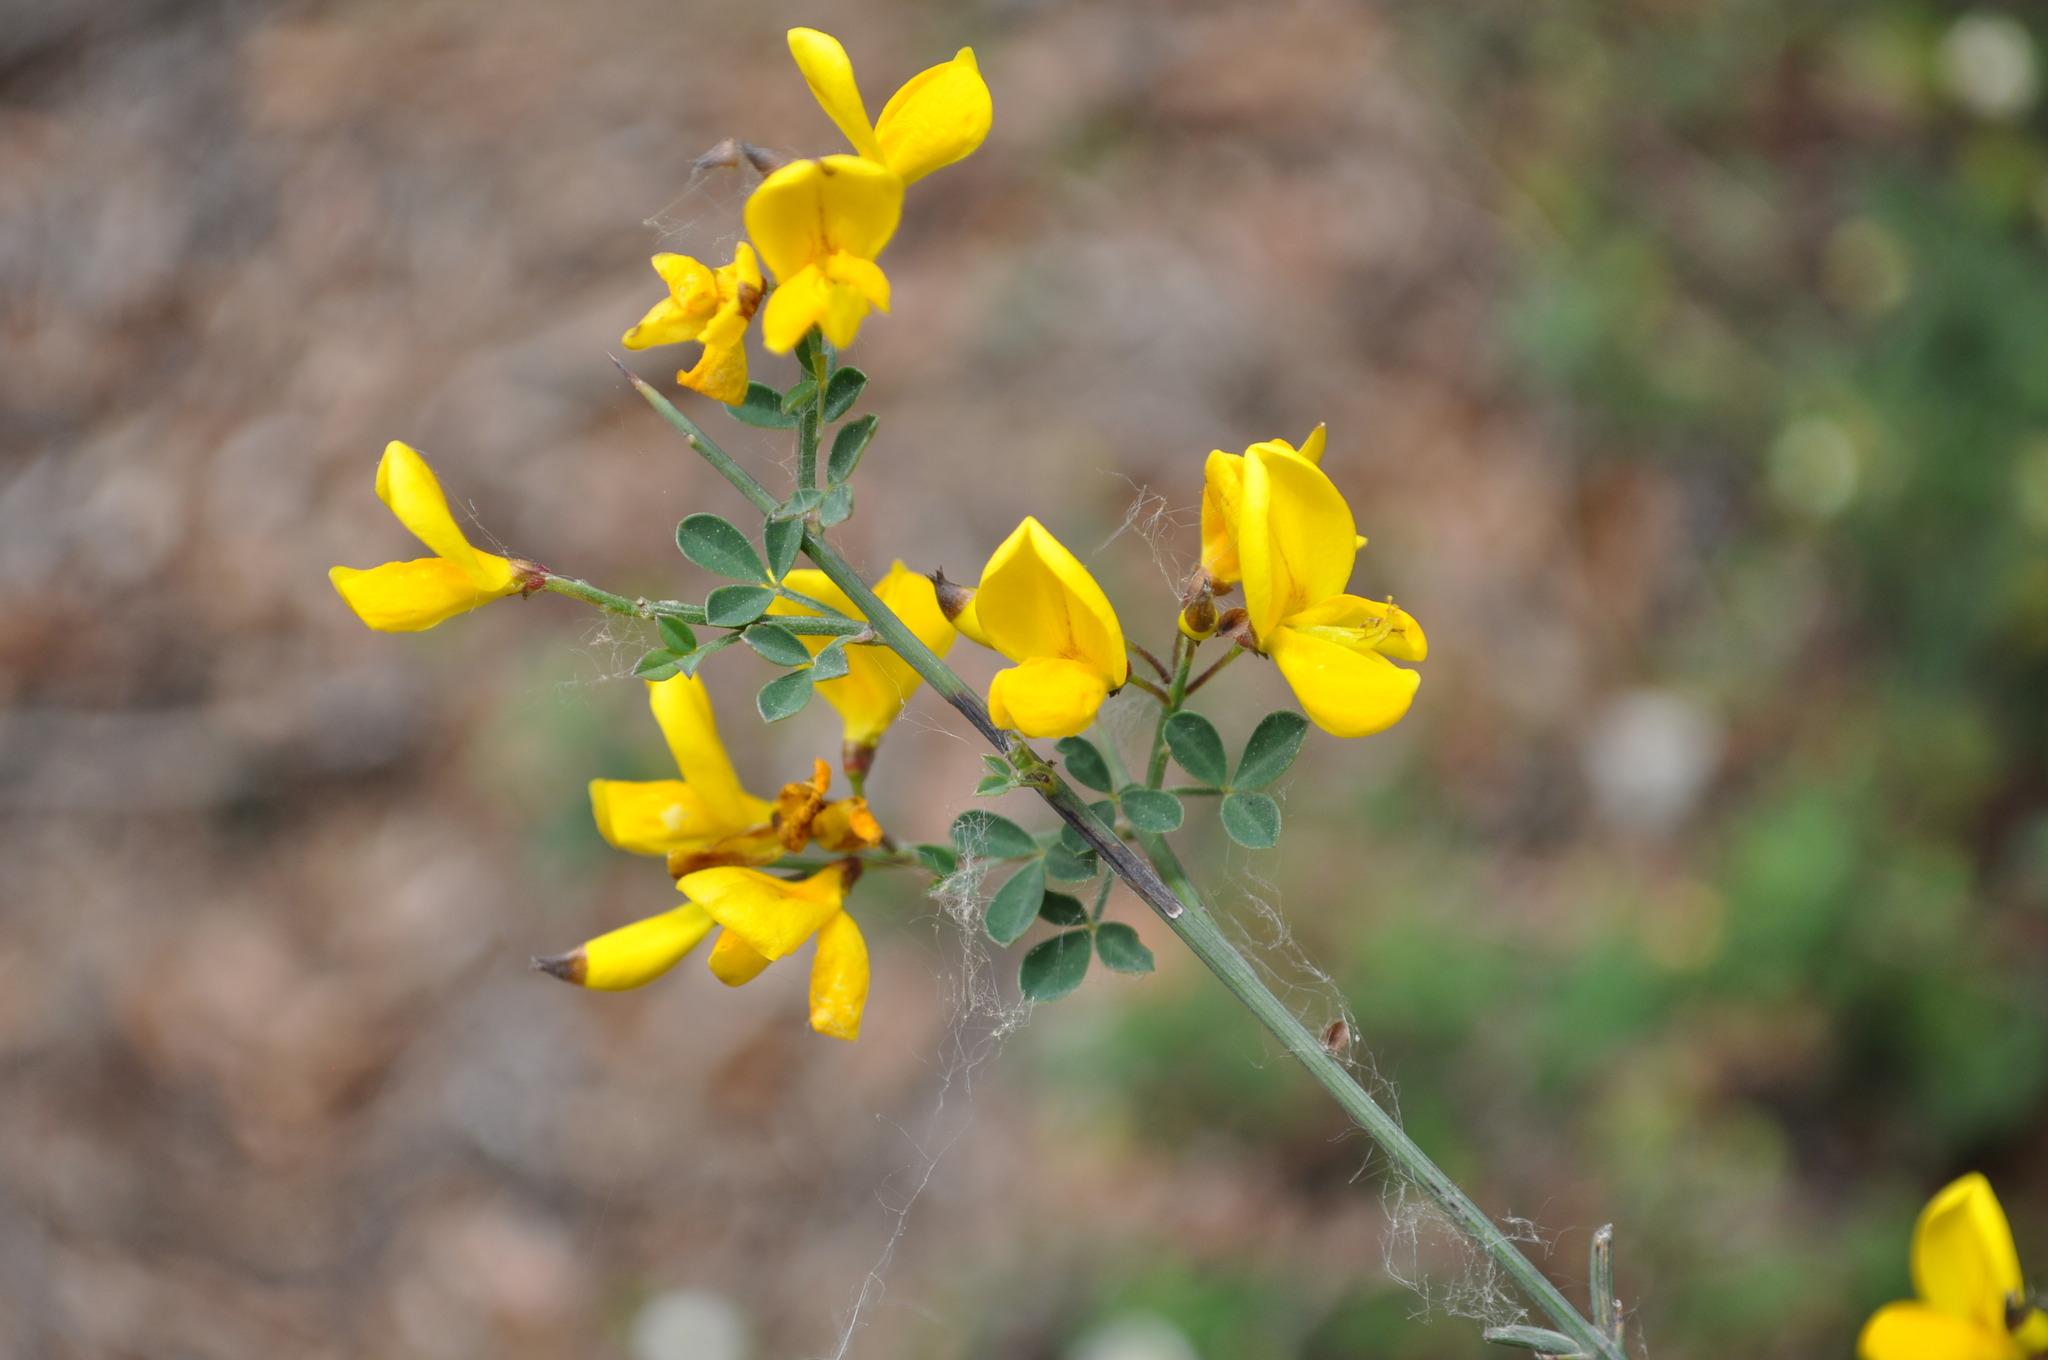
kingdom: Plantae
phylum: Tracheophyta
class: Magnoliopsida
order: Fabales
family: Fabaceae
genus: Calicotome
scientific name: Calicotome spinosa
